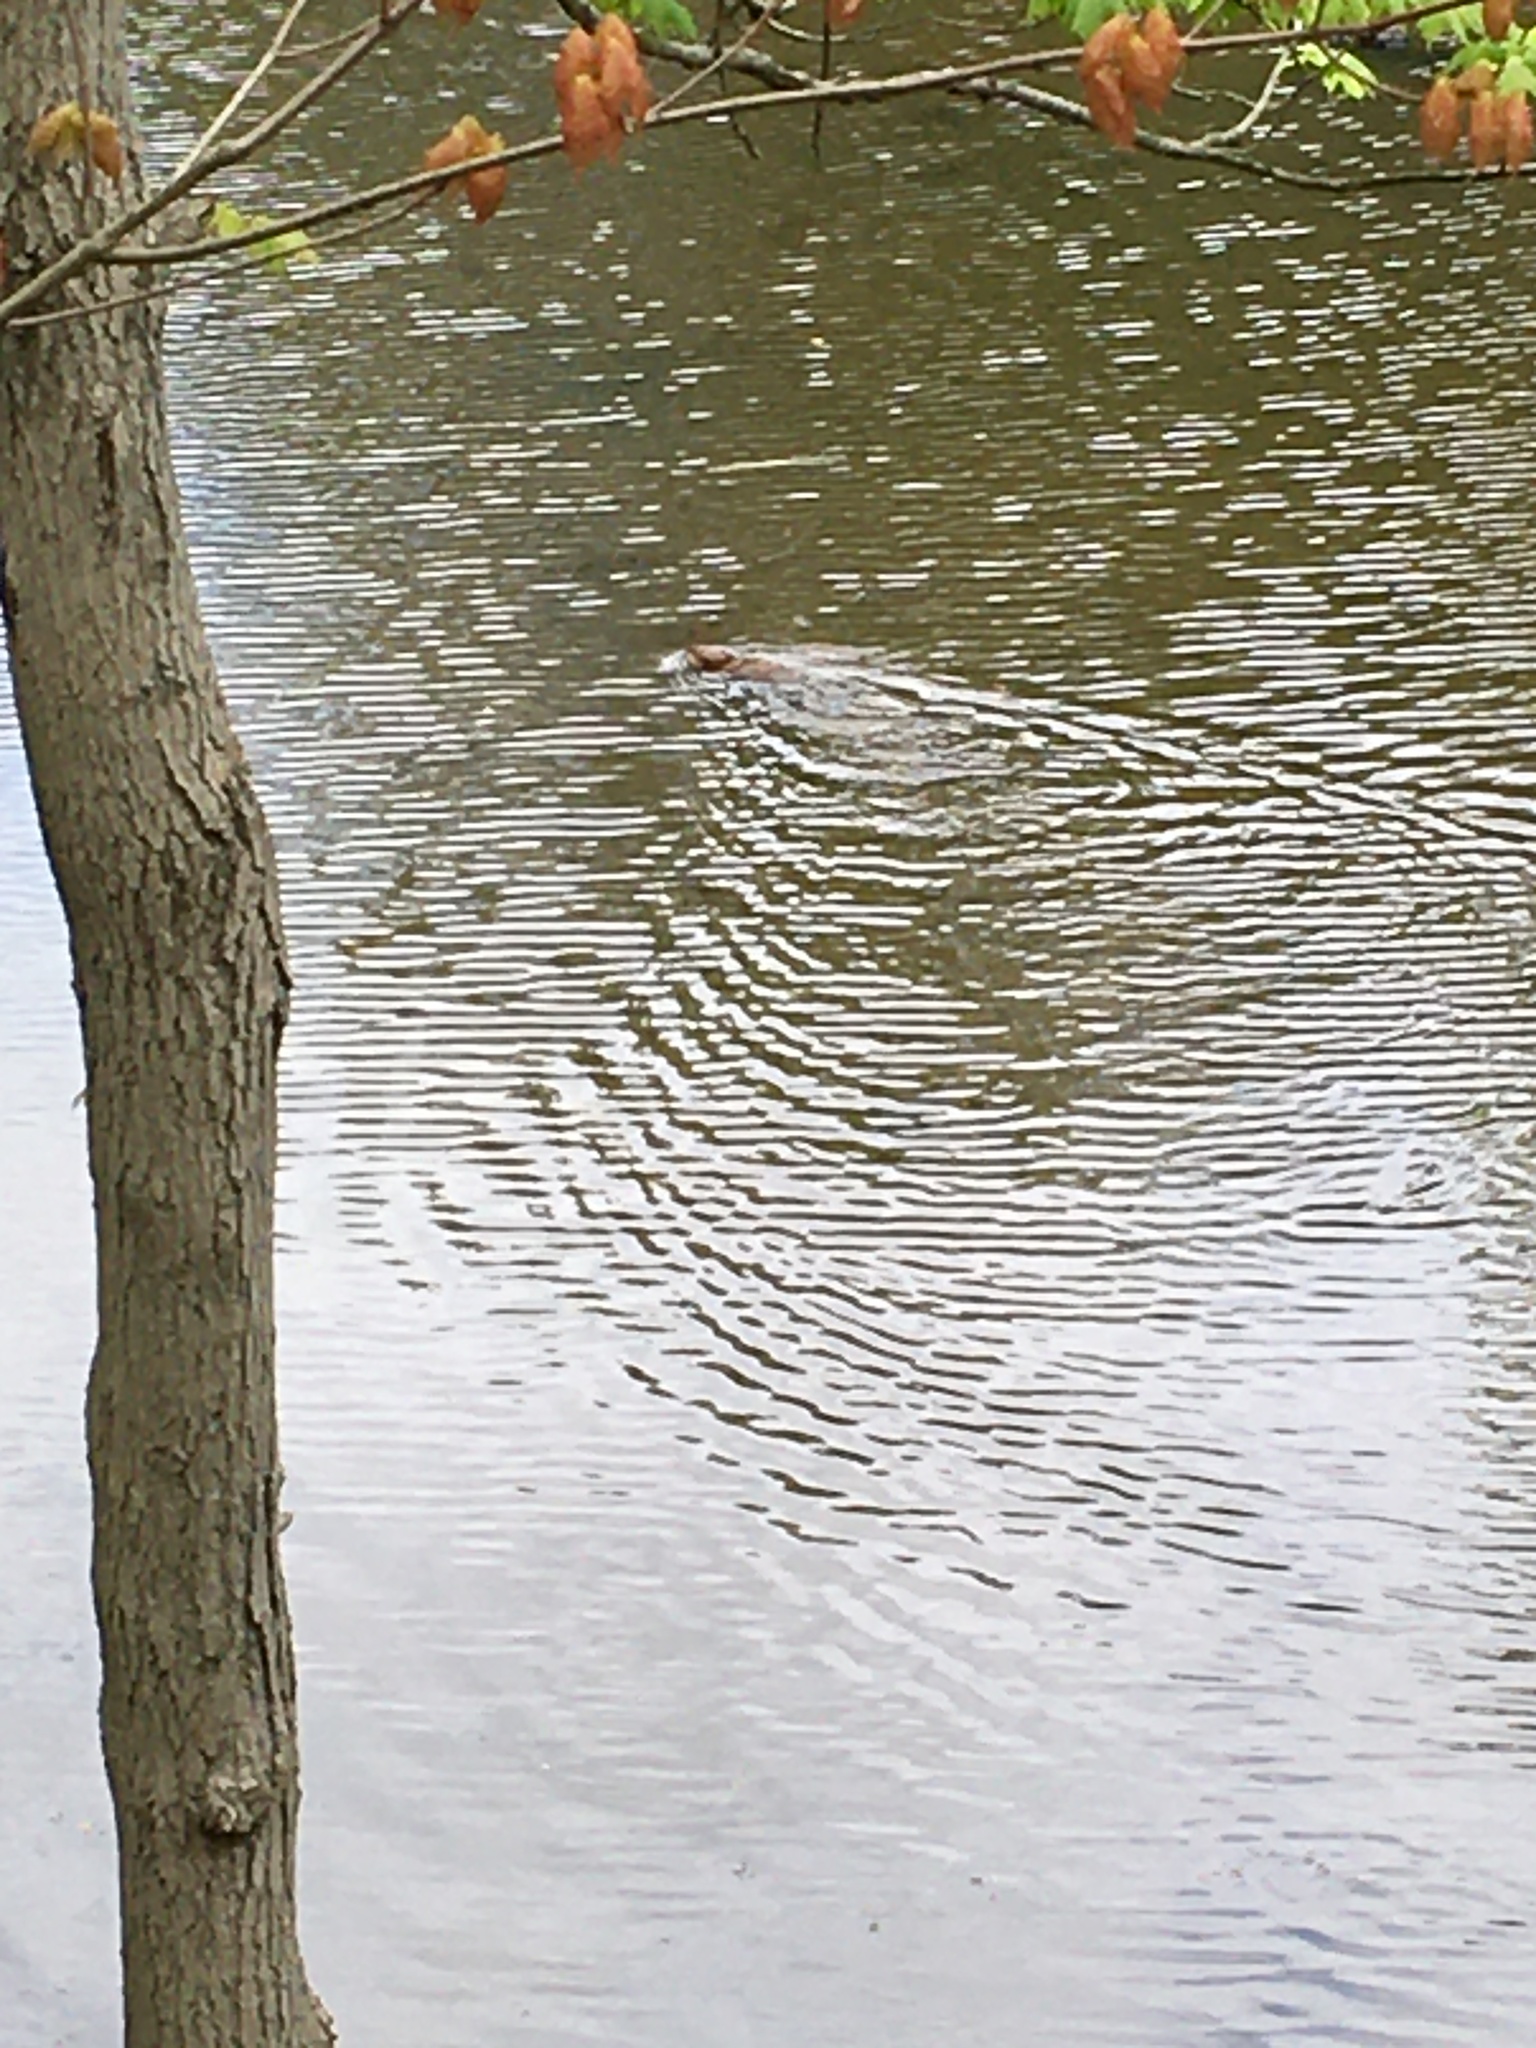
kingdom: Animalia
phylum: Chordata
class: Mammalia
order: Rodentia
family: Cricetidae
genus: Ondatra
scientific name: Ondatra zibethicus
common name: Muskrat
